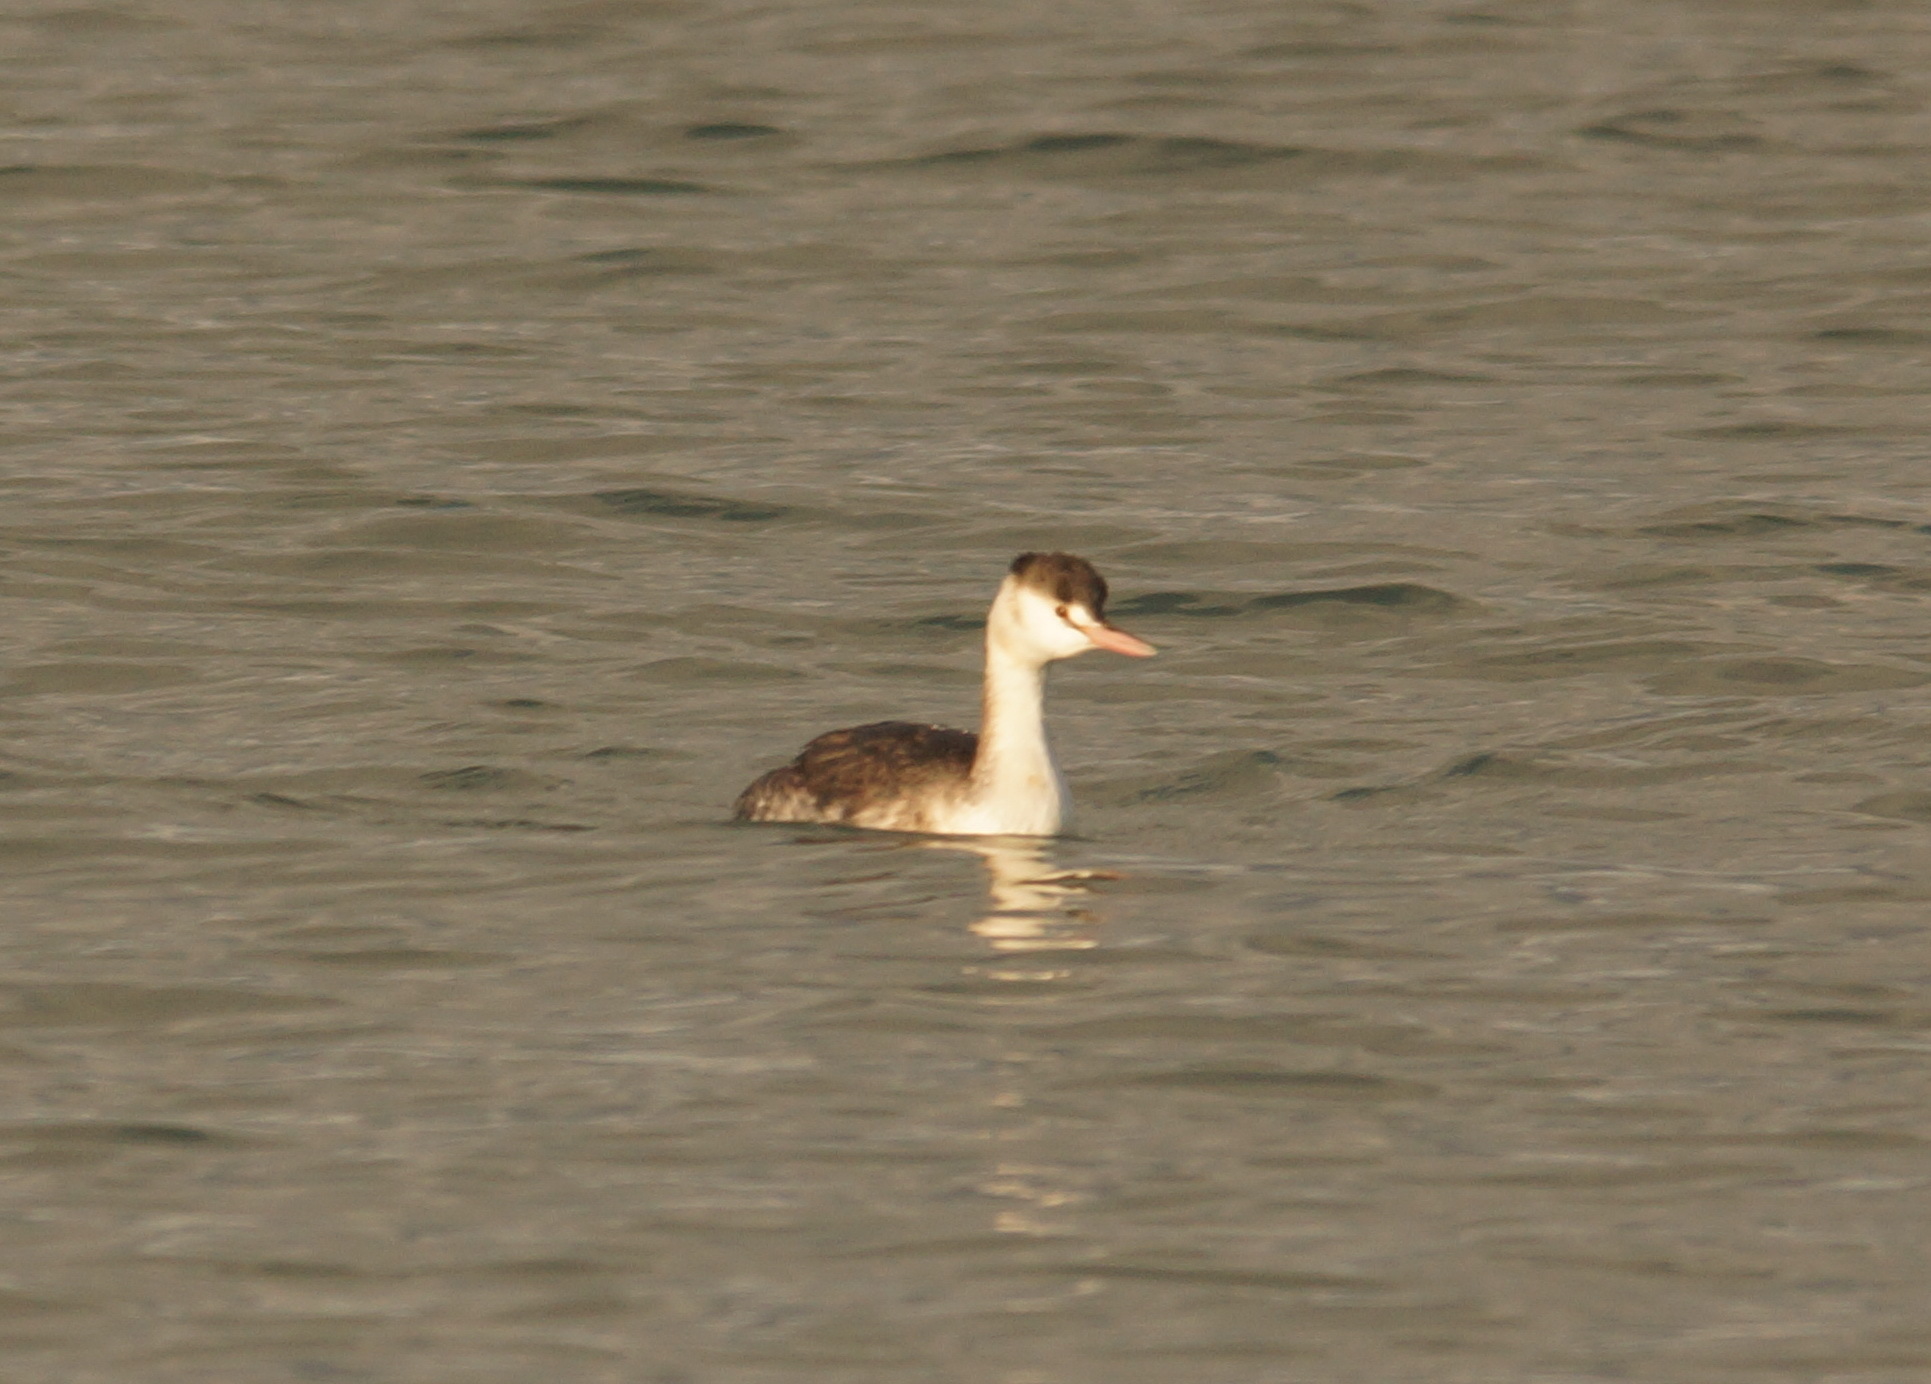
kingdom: Animalia
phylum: Chordata
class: Aves
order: Podicipediformes
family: Podicipedidae
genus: Podiceps
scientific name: Podiceps cristatus
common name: Great crested grebe
